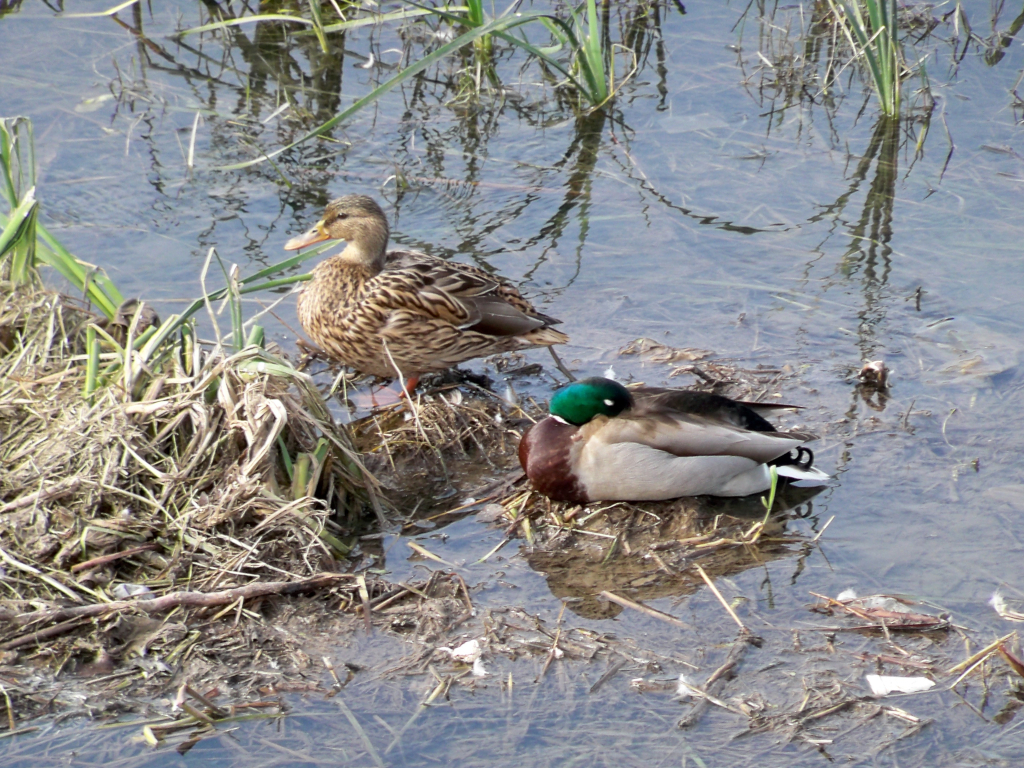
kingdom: Animalia
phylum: Chordata
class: Aves
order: Anseriformes
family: Anatidae
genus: Anas
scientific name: Anas platyrhynchos
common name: Mallard
